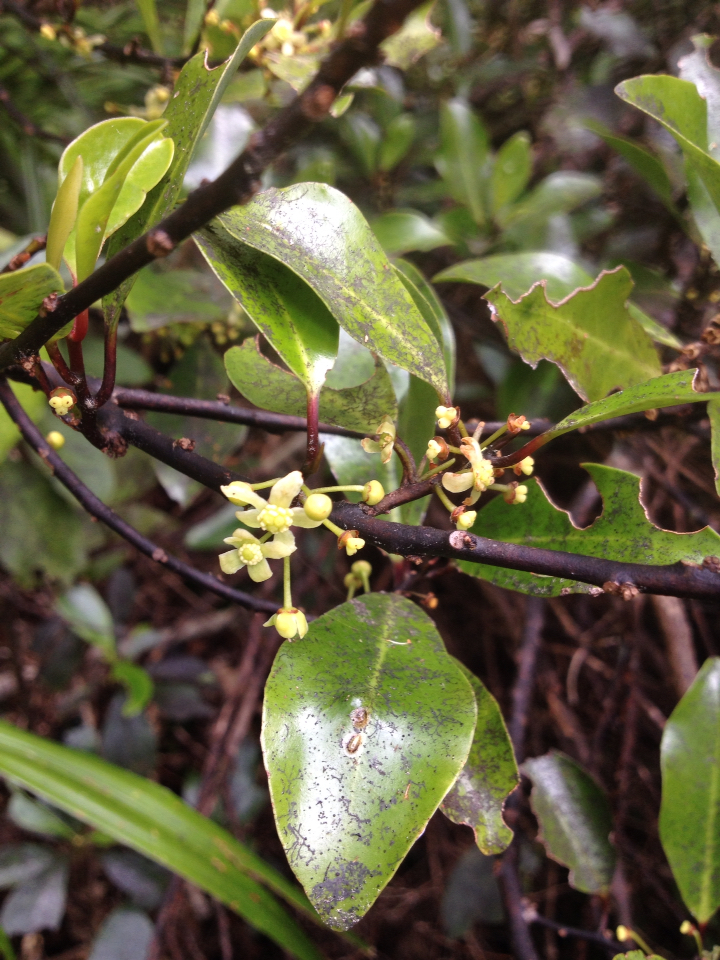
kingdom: Plantae
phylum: Tracheophyta
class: Magnoliopsida
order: Canellales
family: Winteraceae
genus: Pseudowintera
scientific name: Pseudowintera axillaris
